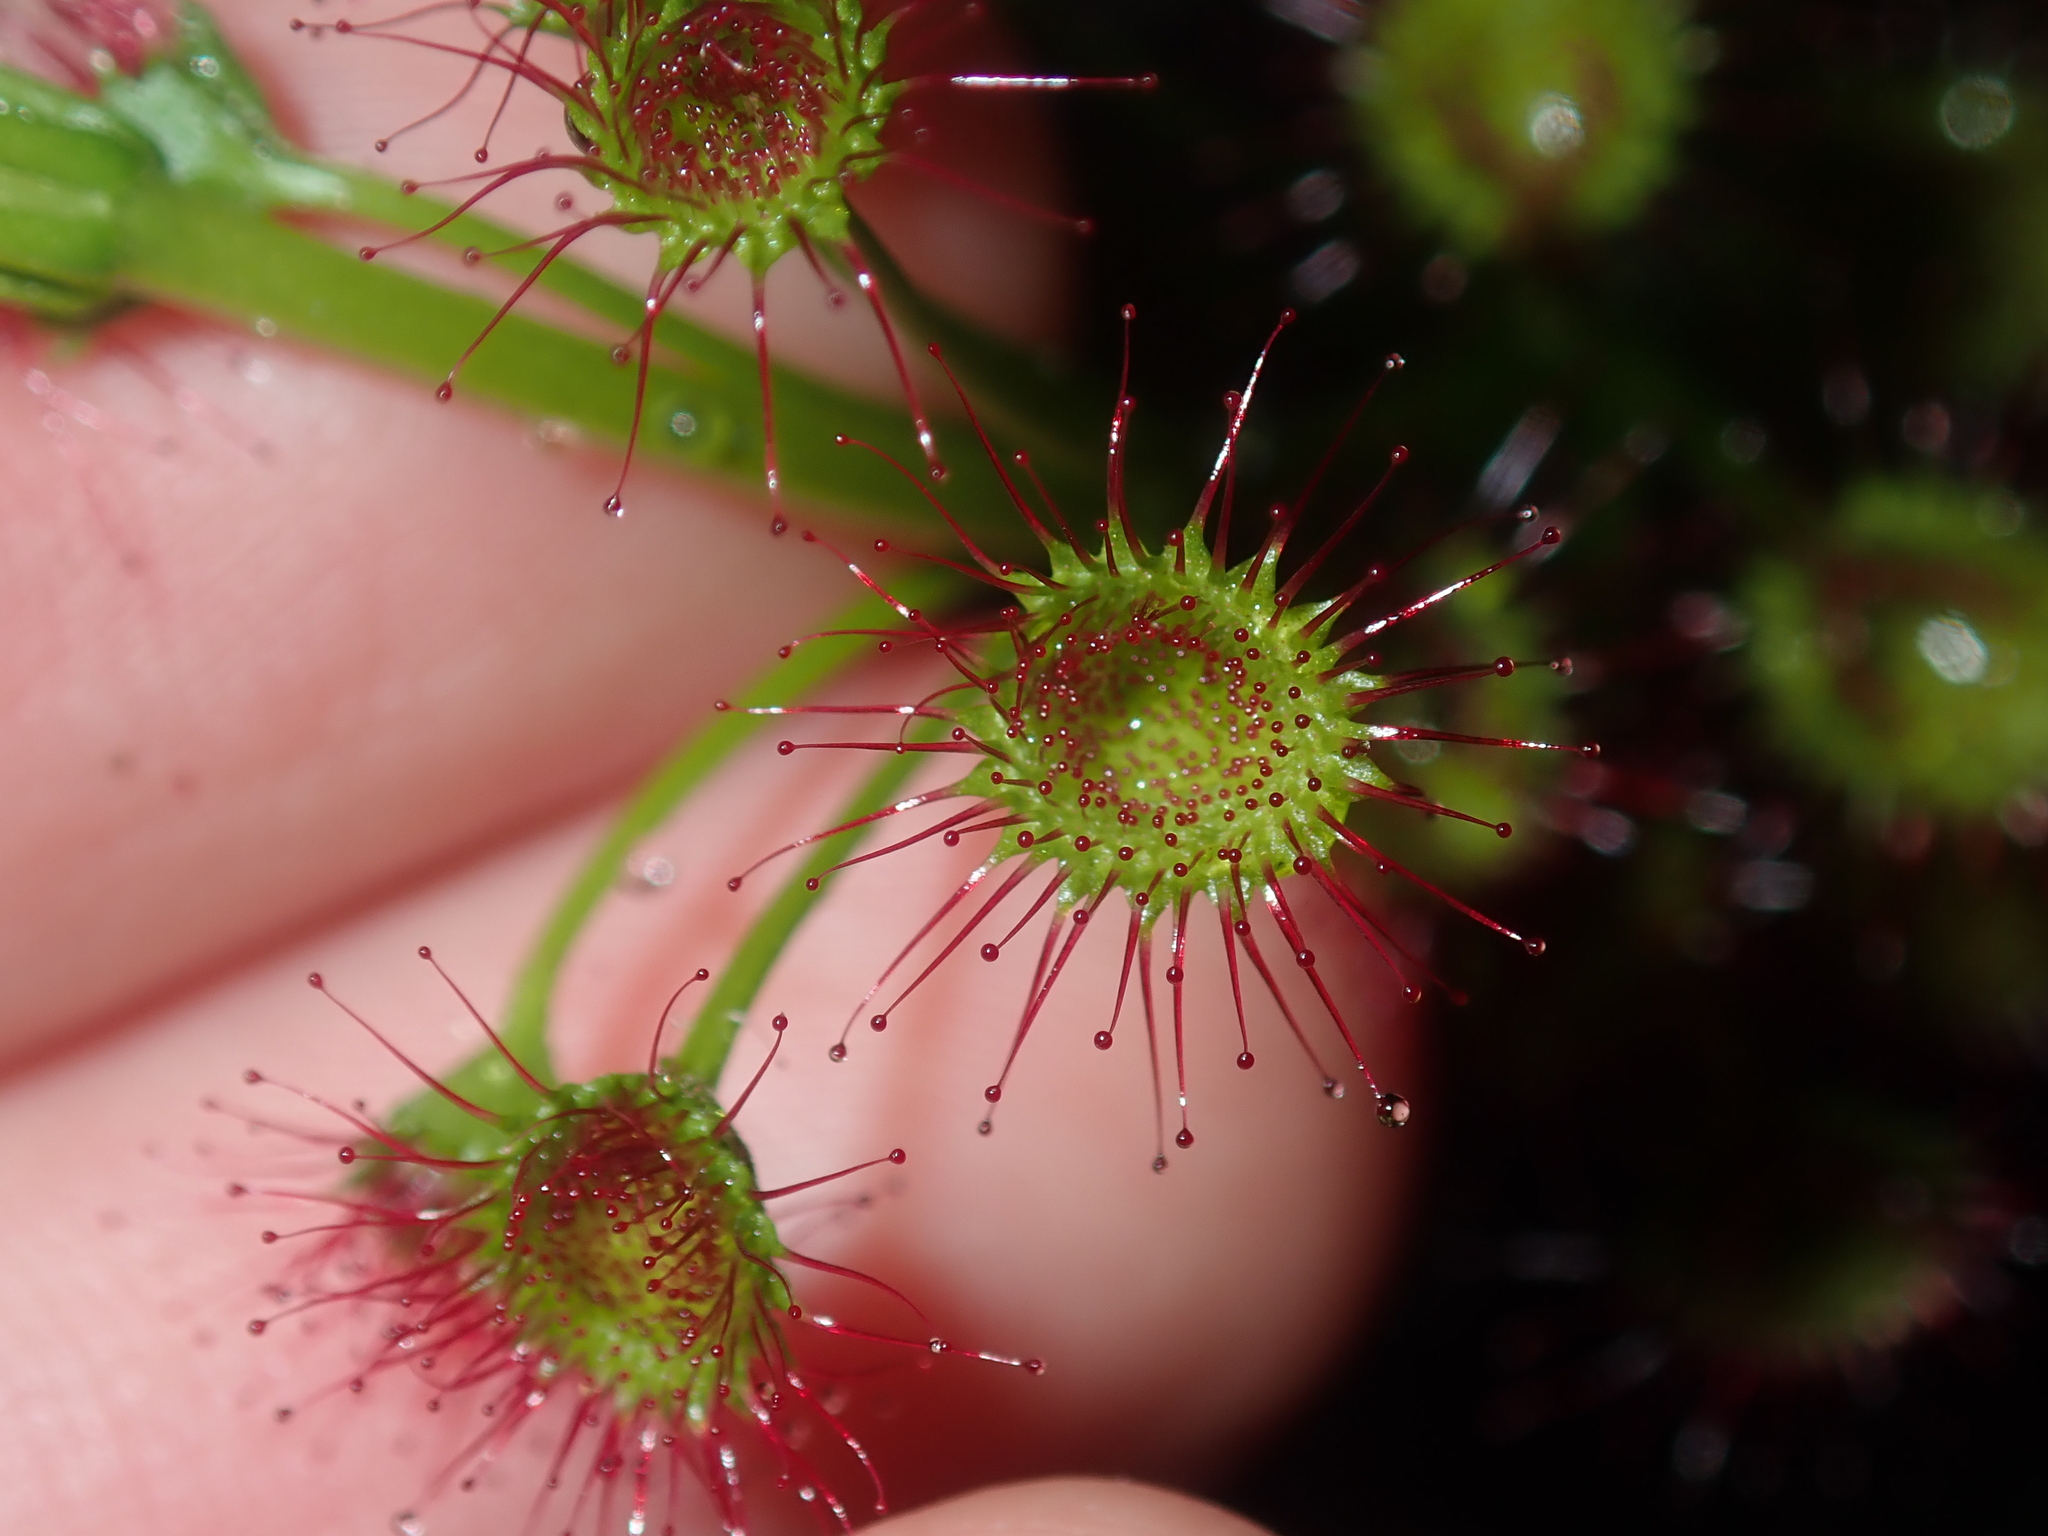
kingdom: Plantae
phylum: Tracheophyta
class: Magnoliopsida
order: Caryophyllales
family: Droseraceae
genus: Drosera
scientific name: Drosera stolonifera
